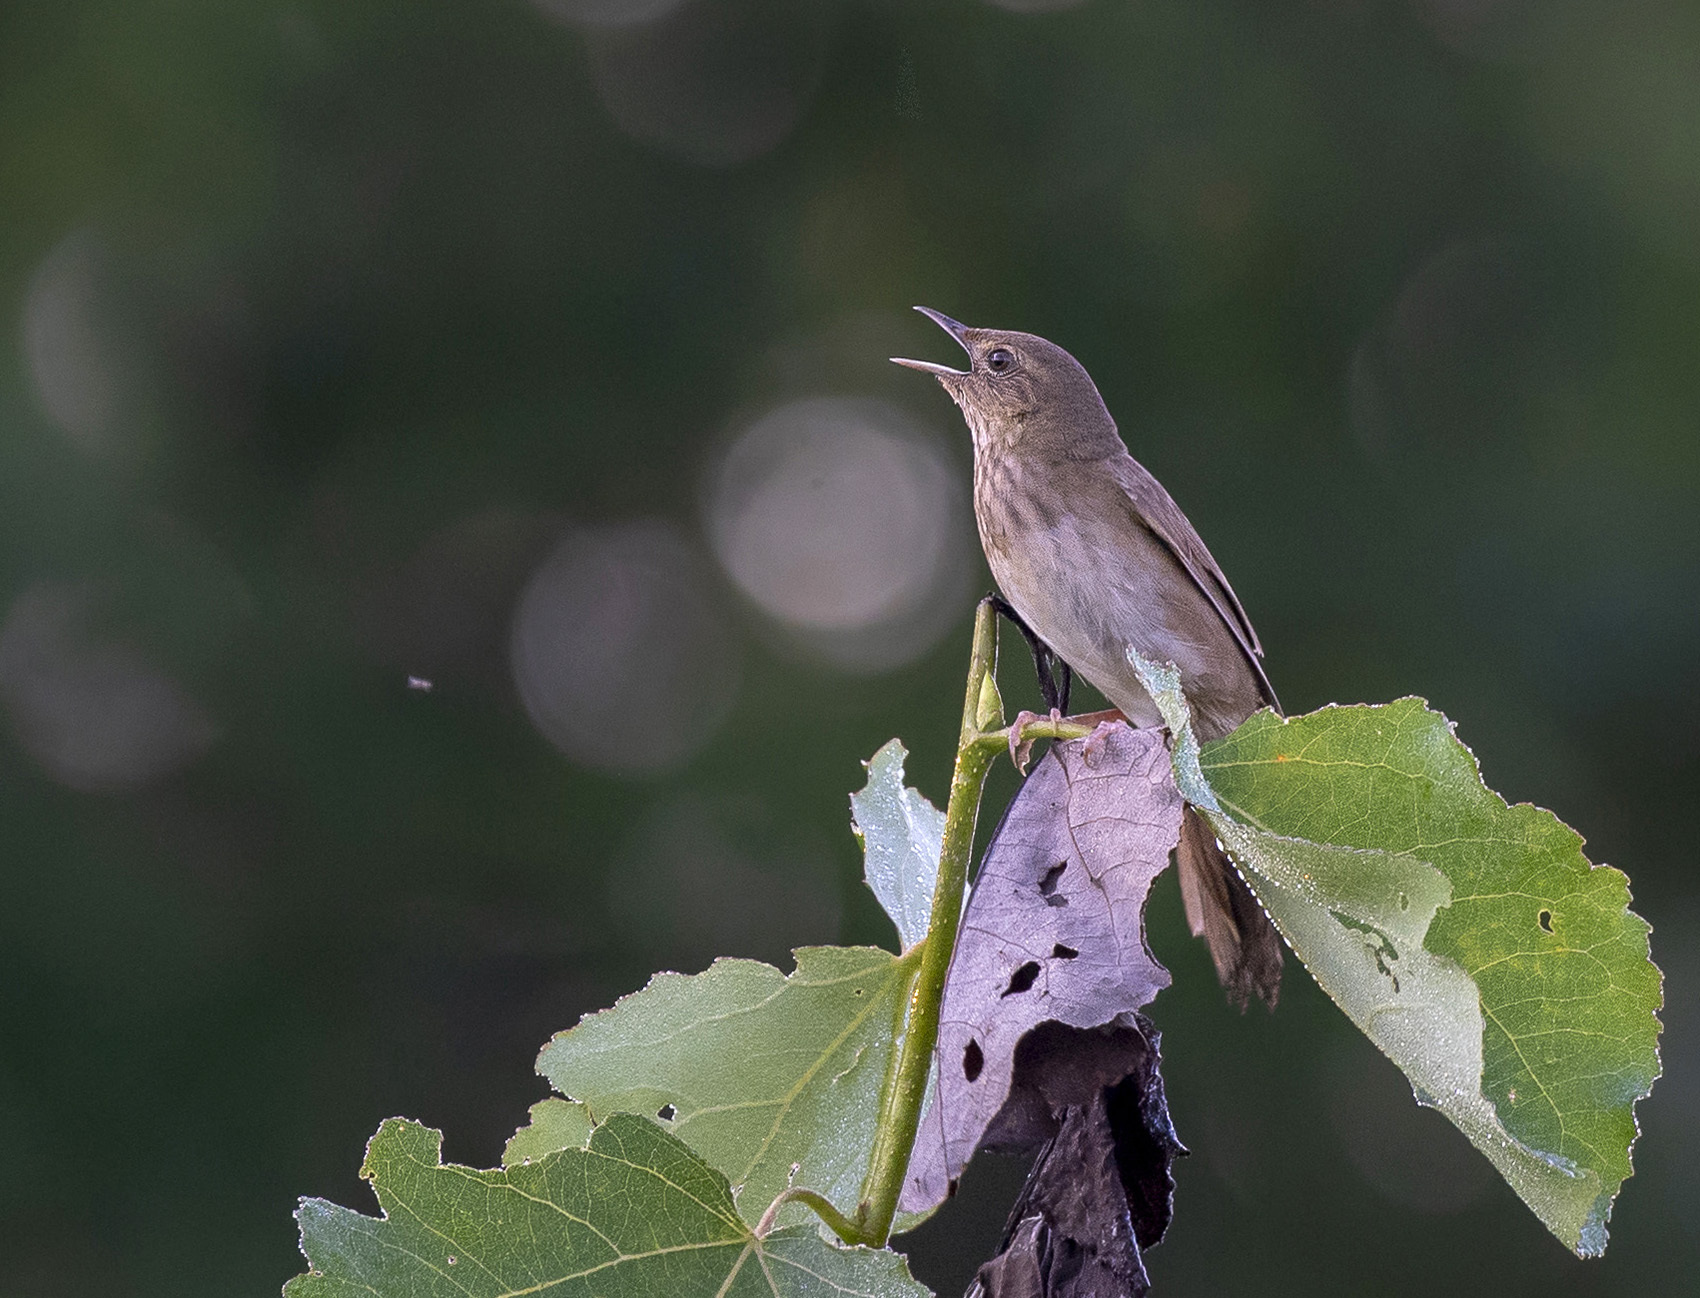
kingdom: Animalia
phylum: Chordata
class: Aves
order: Passeriformes
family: Locustellidae
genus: Locustella
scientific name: Locustella fluviatilis
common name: River warbler
